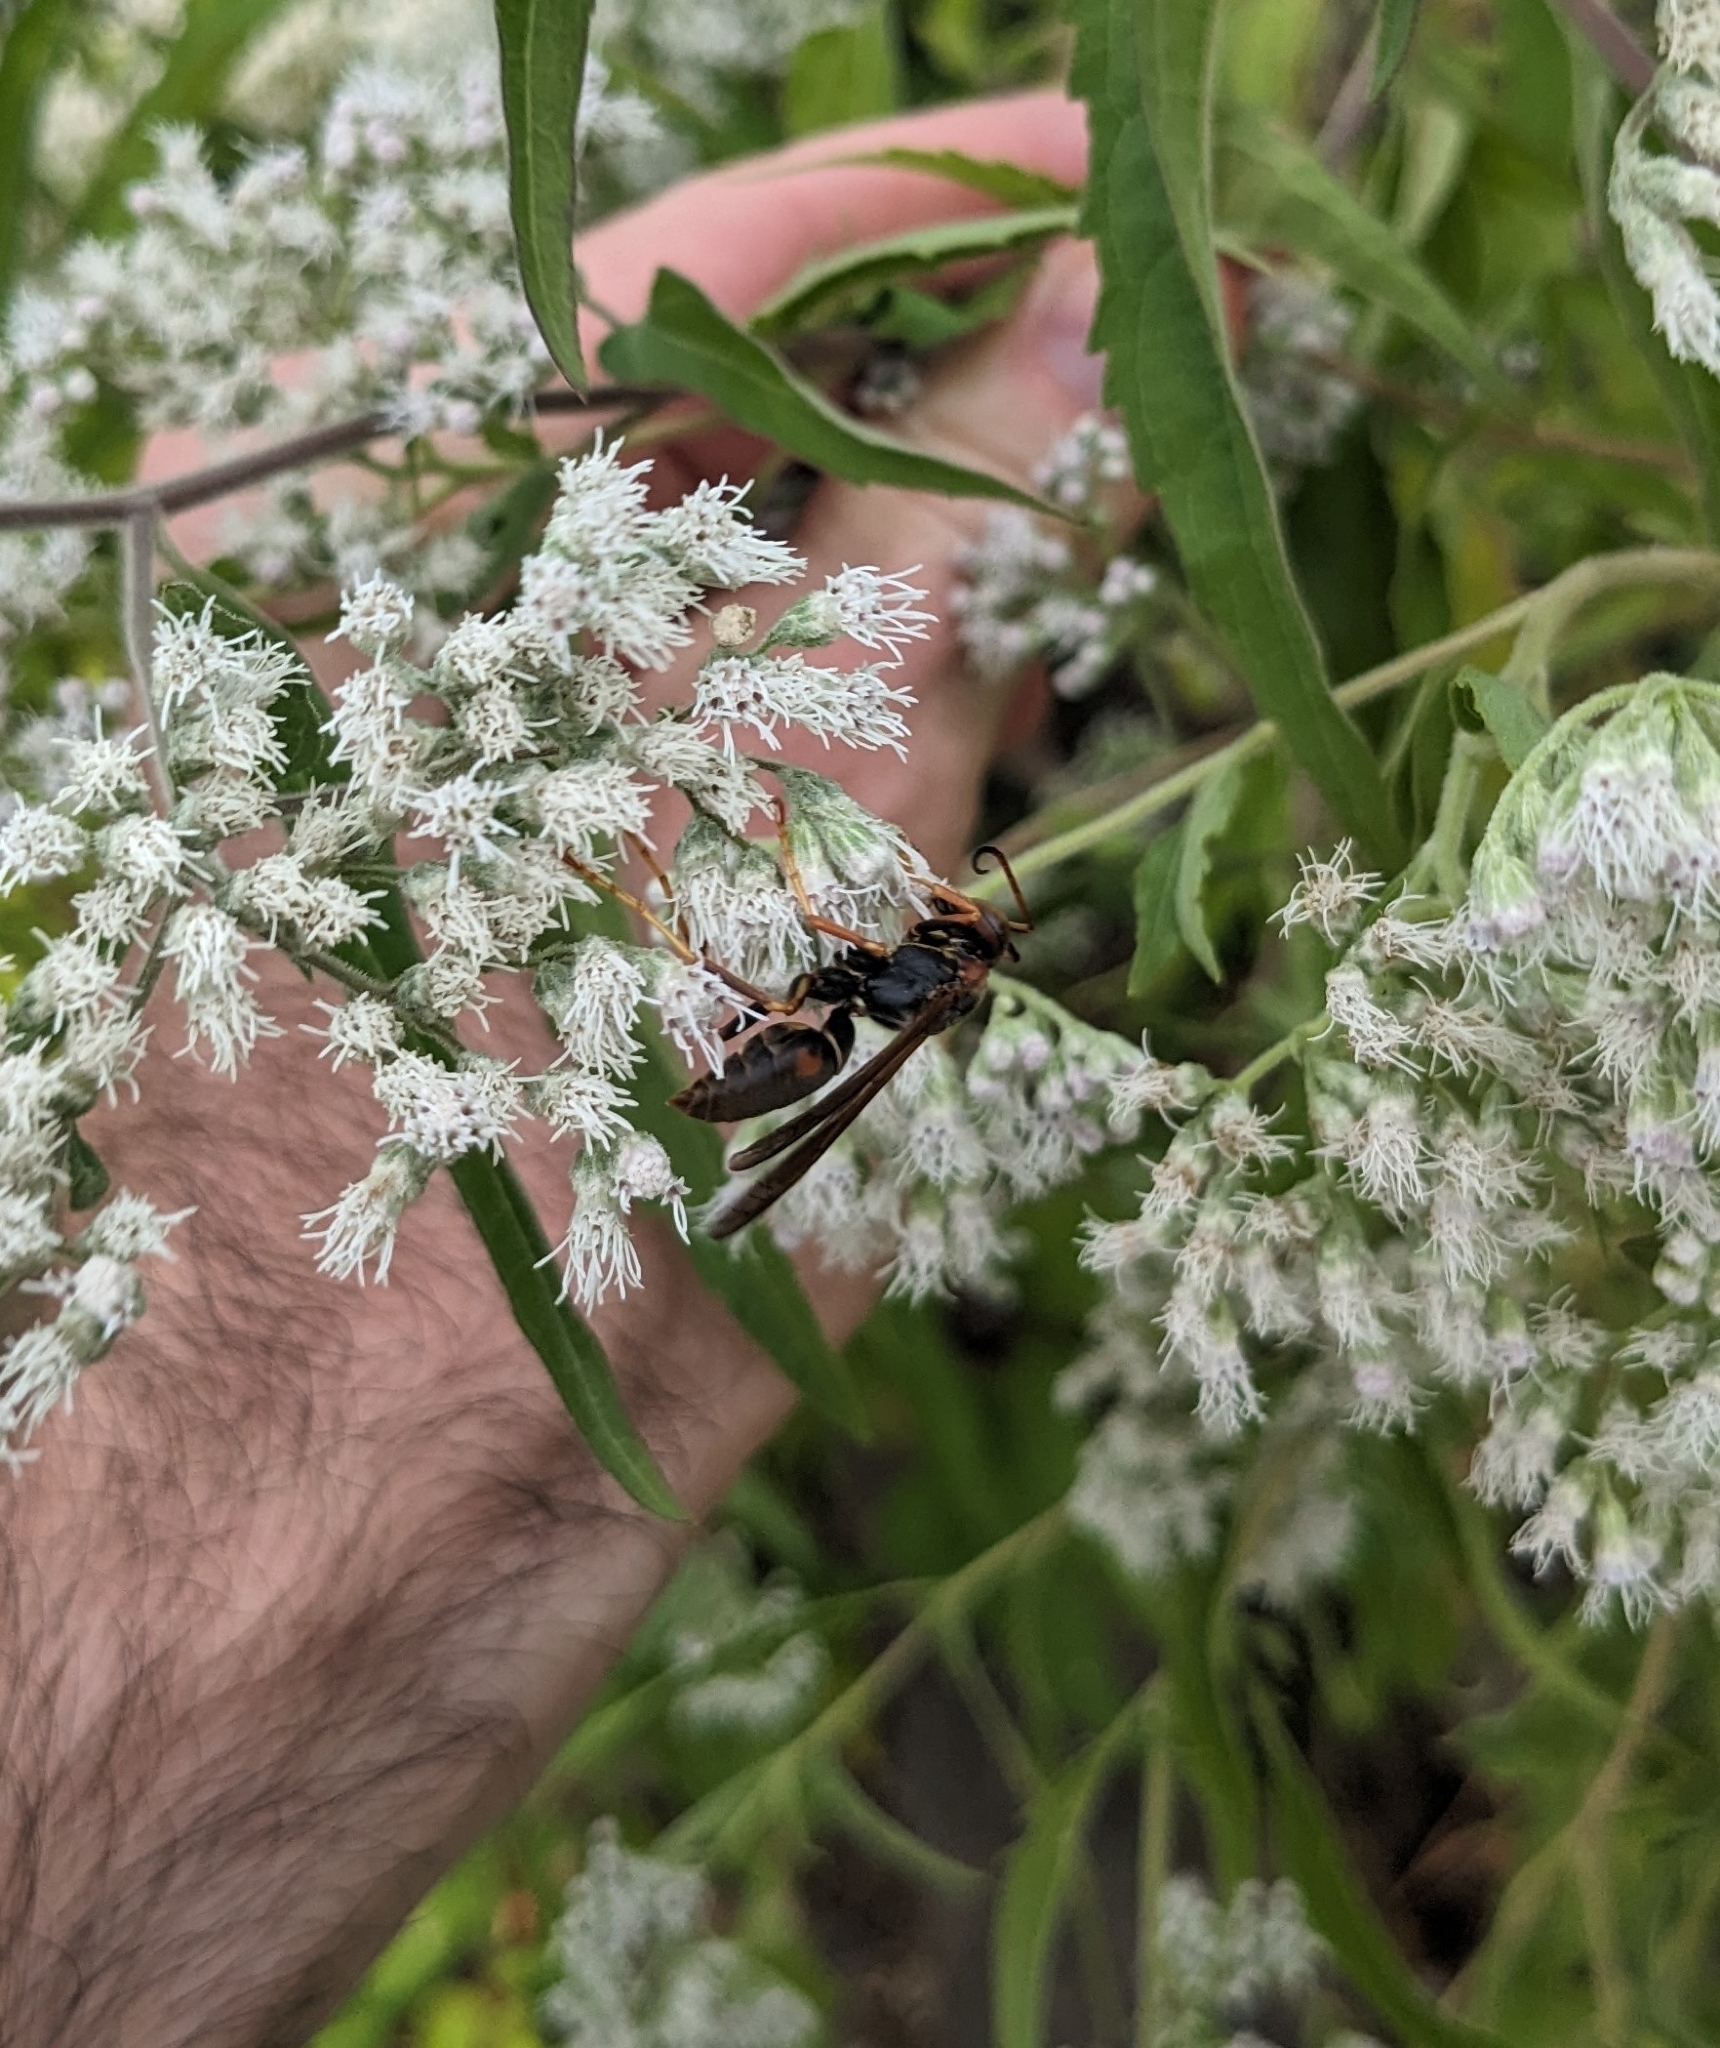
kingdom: Animalia
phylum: Arthropoda
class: Insecta
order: Hymenoptera
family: Eumenidae
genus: Polistes
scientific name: Polistes fuscatus
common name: Dark paper wasp
